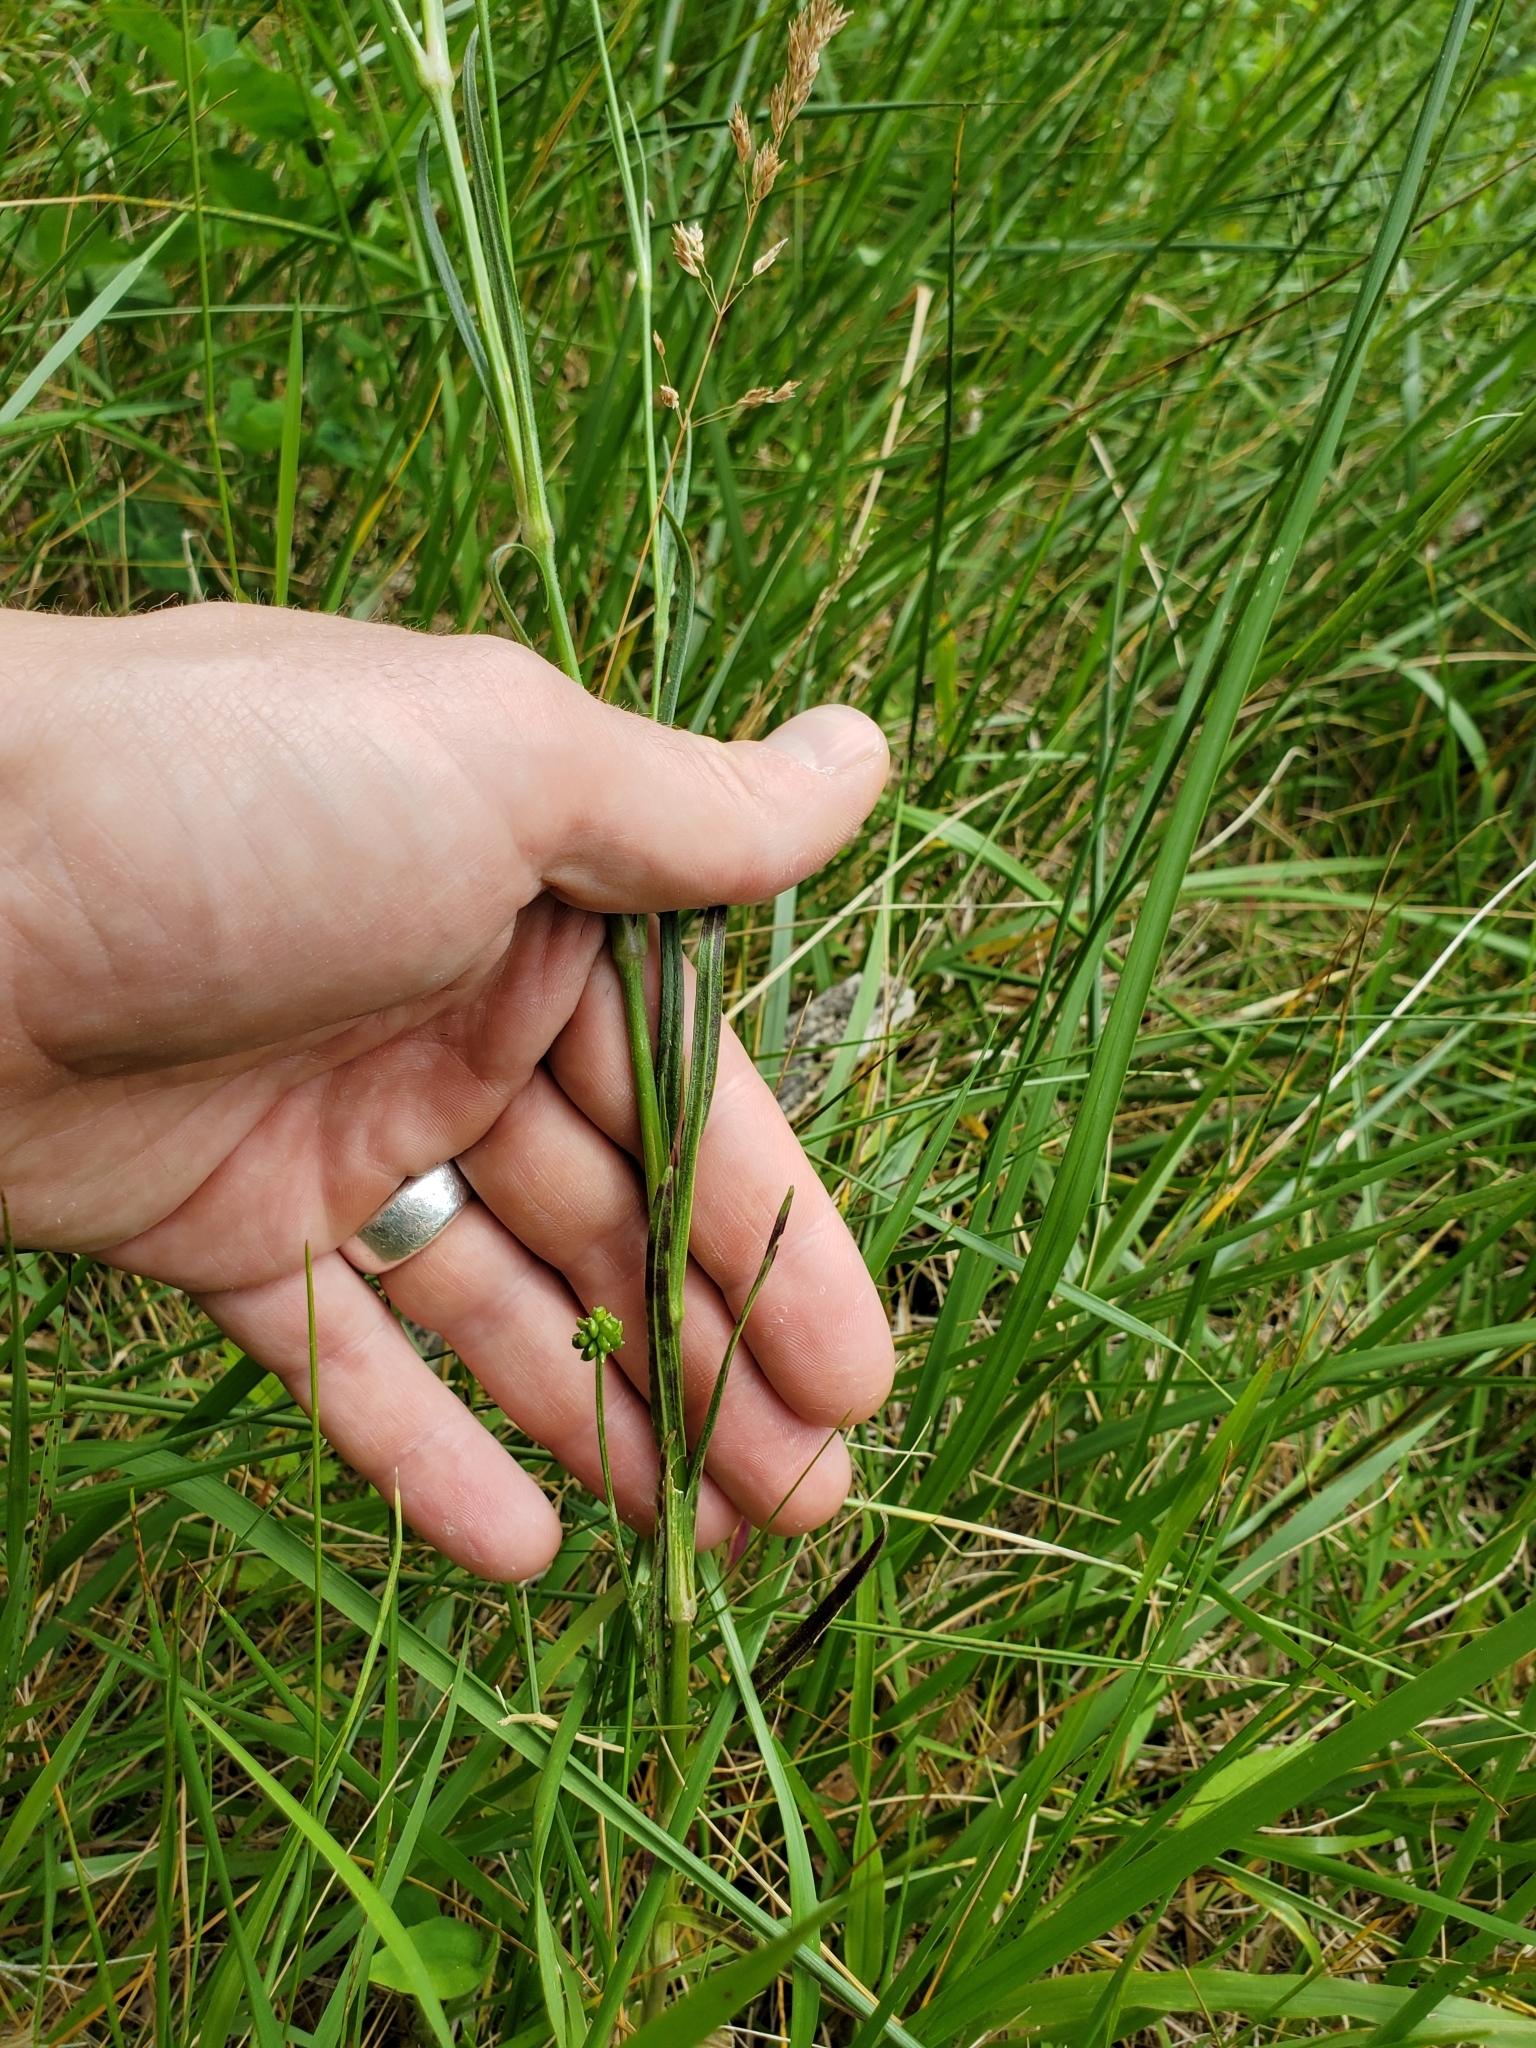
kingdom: Plantae
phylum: Tracheophyta
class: Magnoliopsida
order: Caryophyllales
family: Caryophyllaceae
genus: Dianthus
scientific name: Dianthus armeria
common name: Deptford pink
